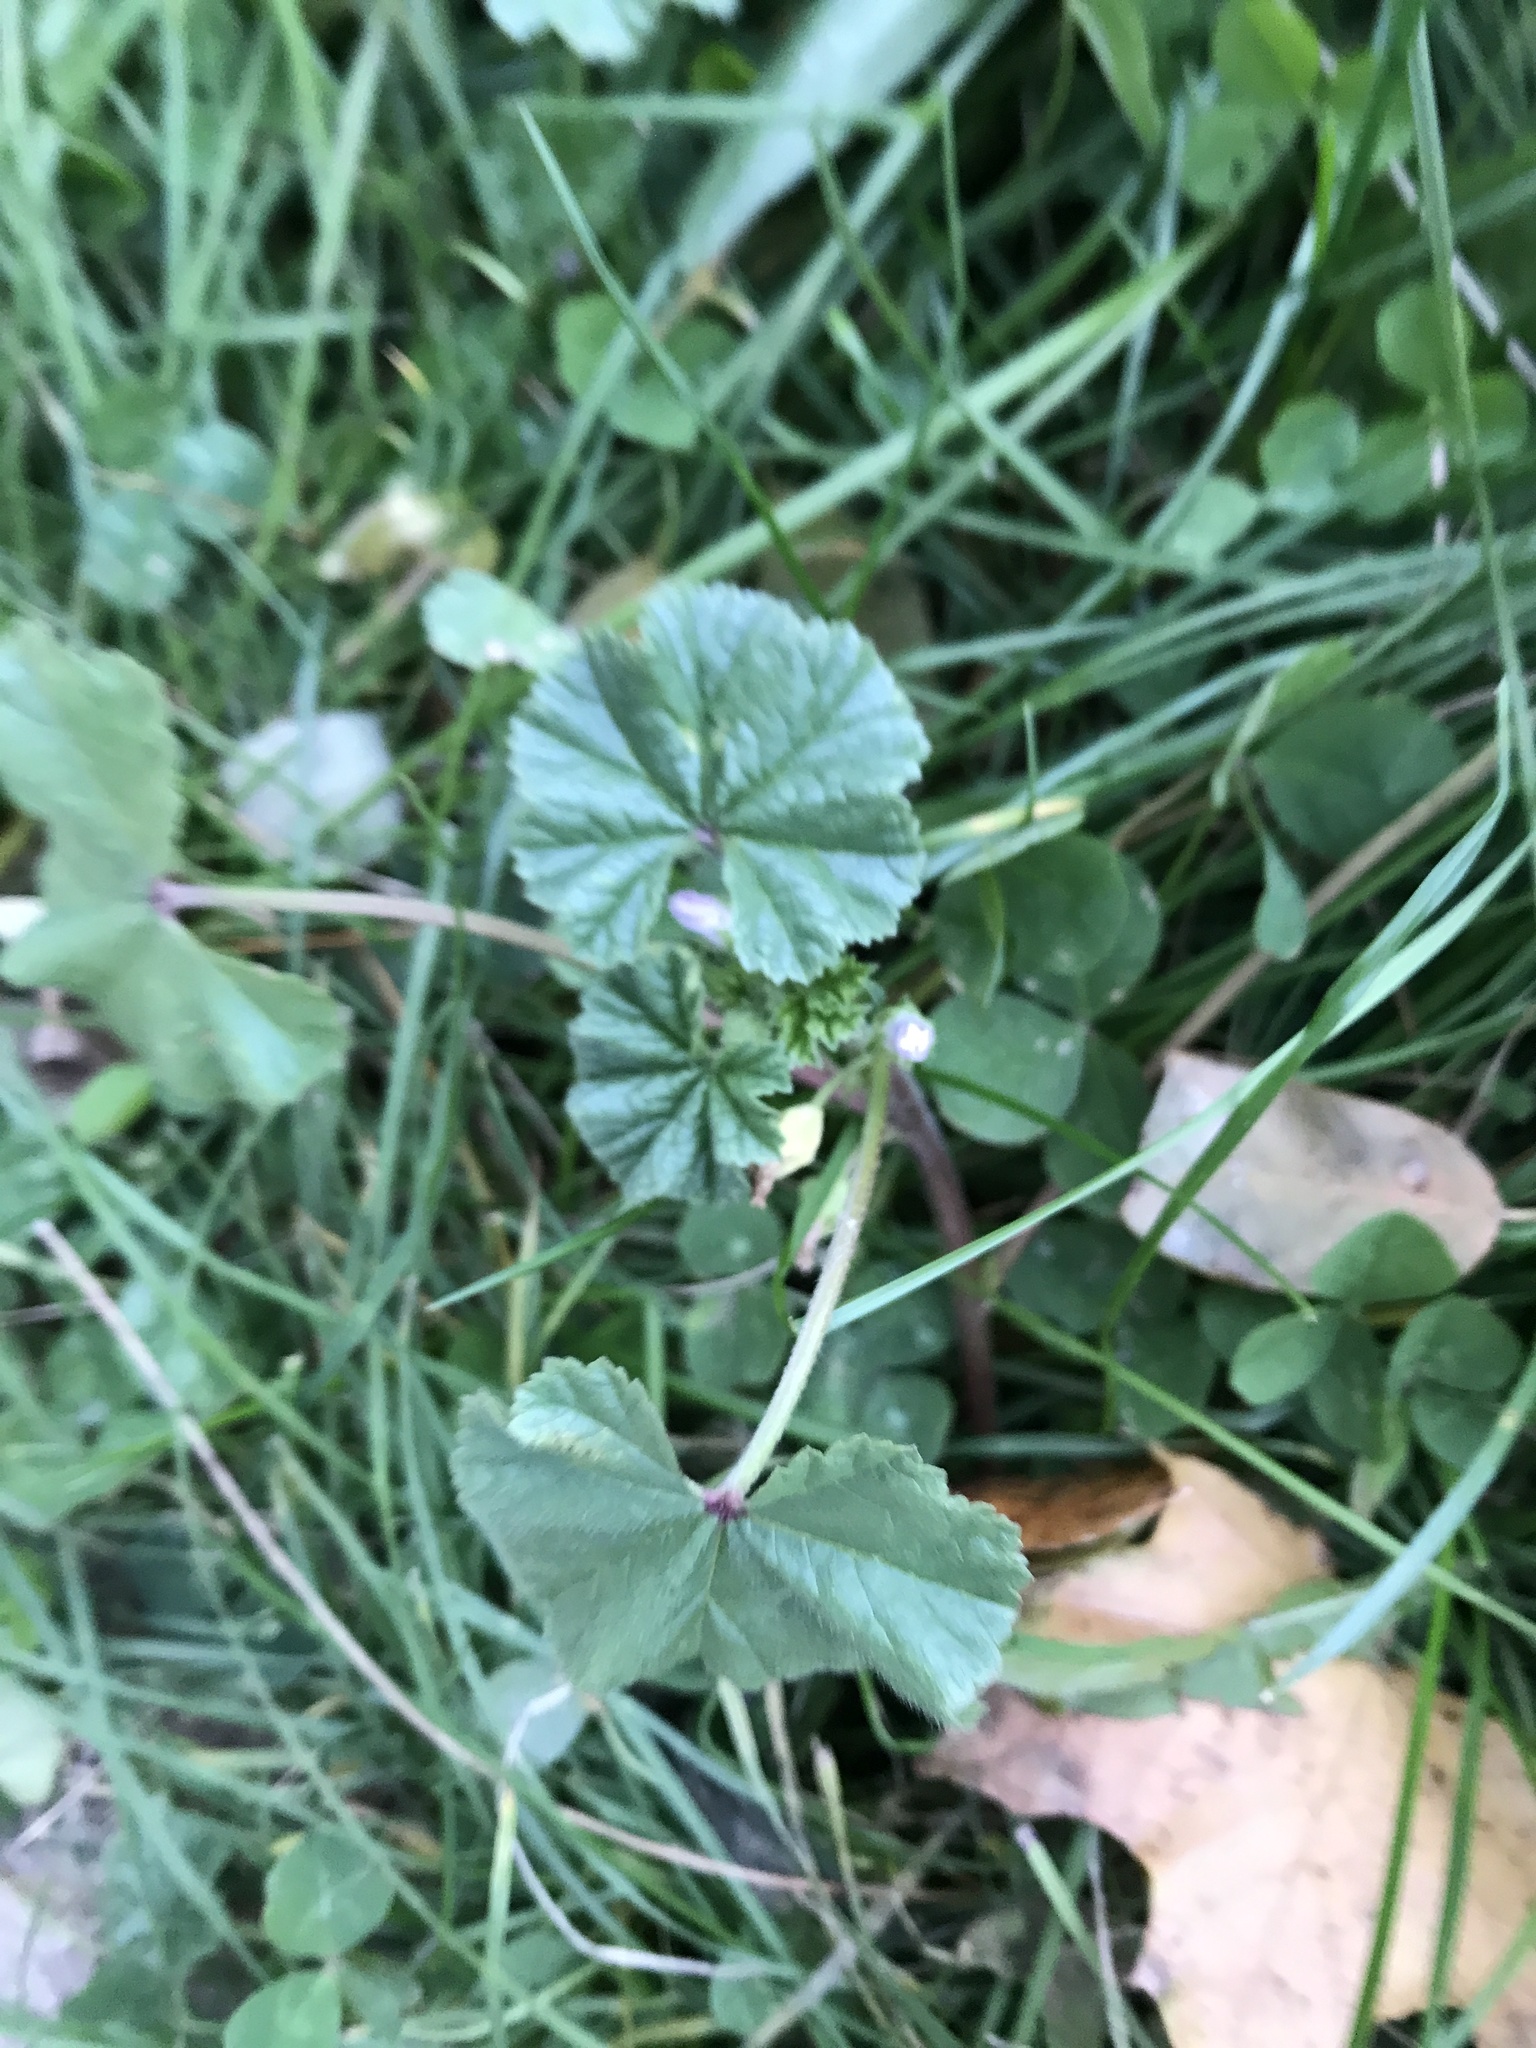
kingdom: Plantae
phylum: Tracheophyta
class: Magnoliopsida
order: Malvales
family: Malvaceae
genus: Malva
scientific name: Malva neglecta
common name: Common mallow
